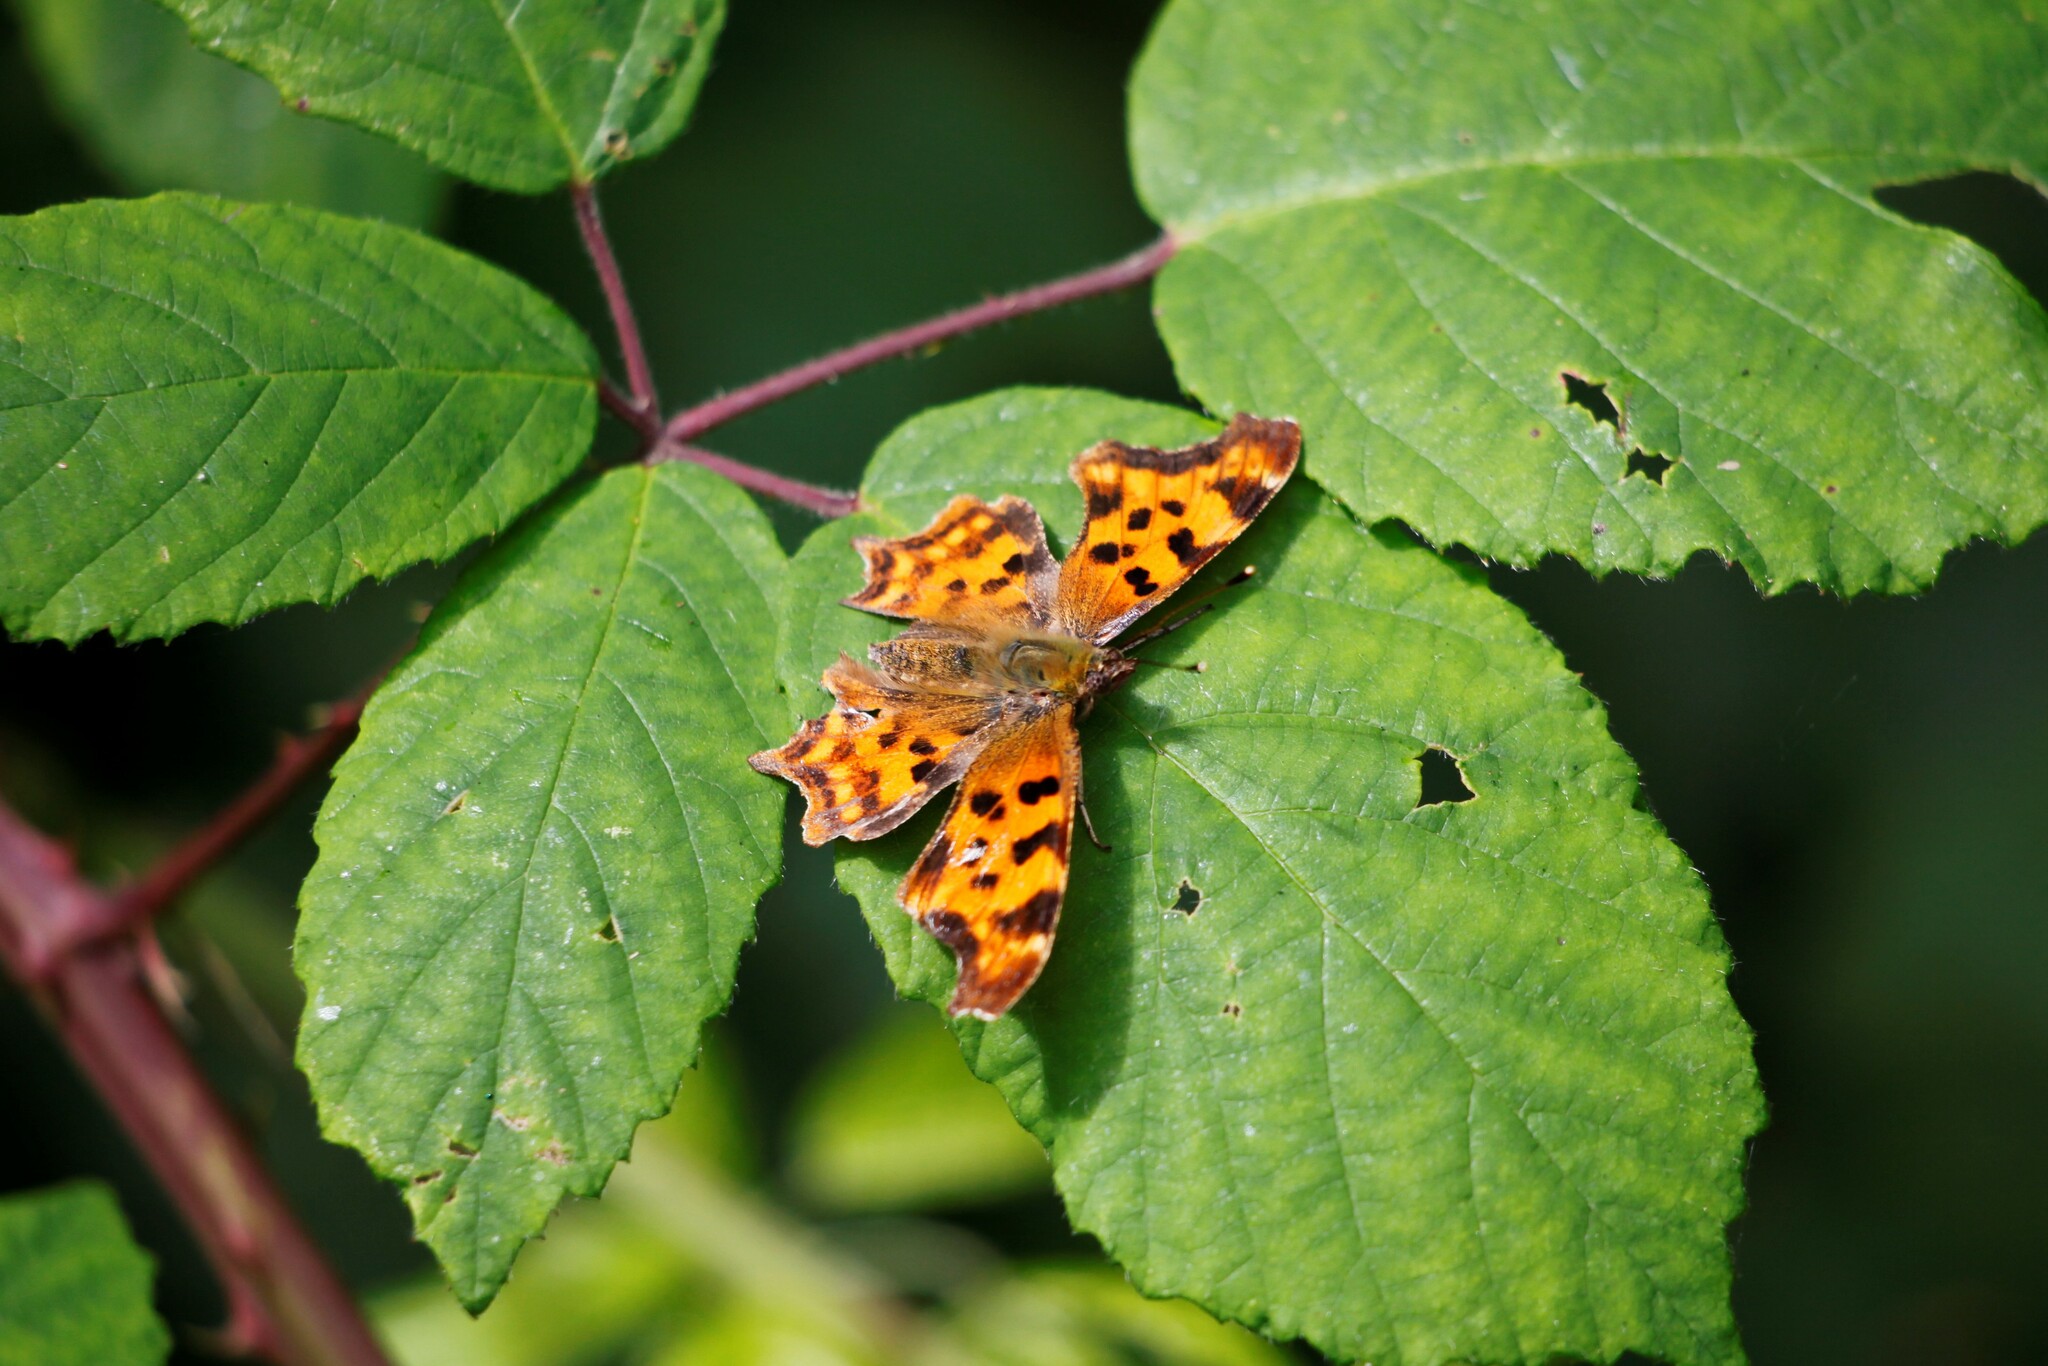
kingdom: Animalia
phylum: Arthropoda
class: Insecta
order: Lepidoptera
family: Nymphalidae
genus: Polygonia
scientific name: Polygonia c-album
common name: Comma
